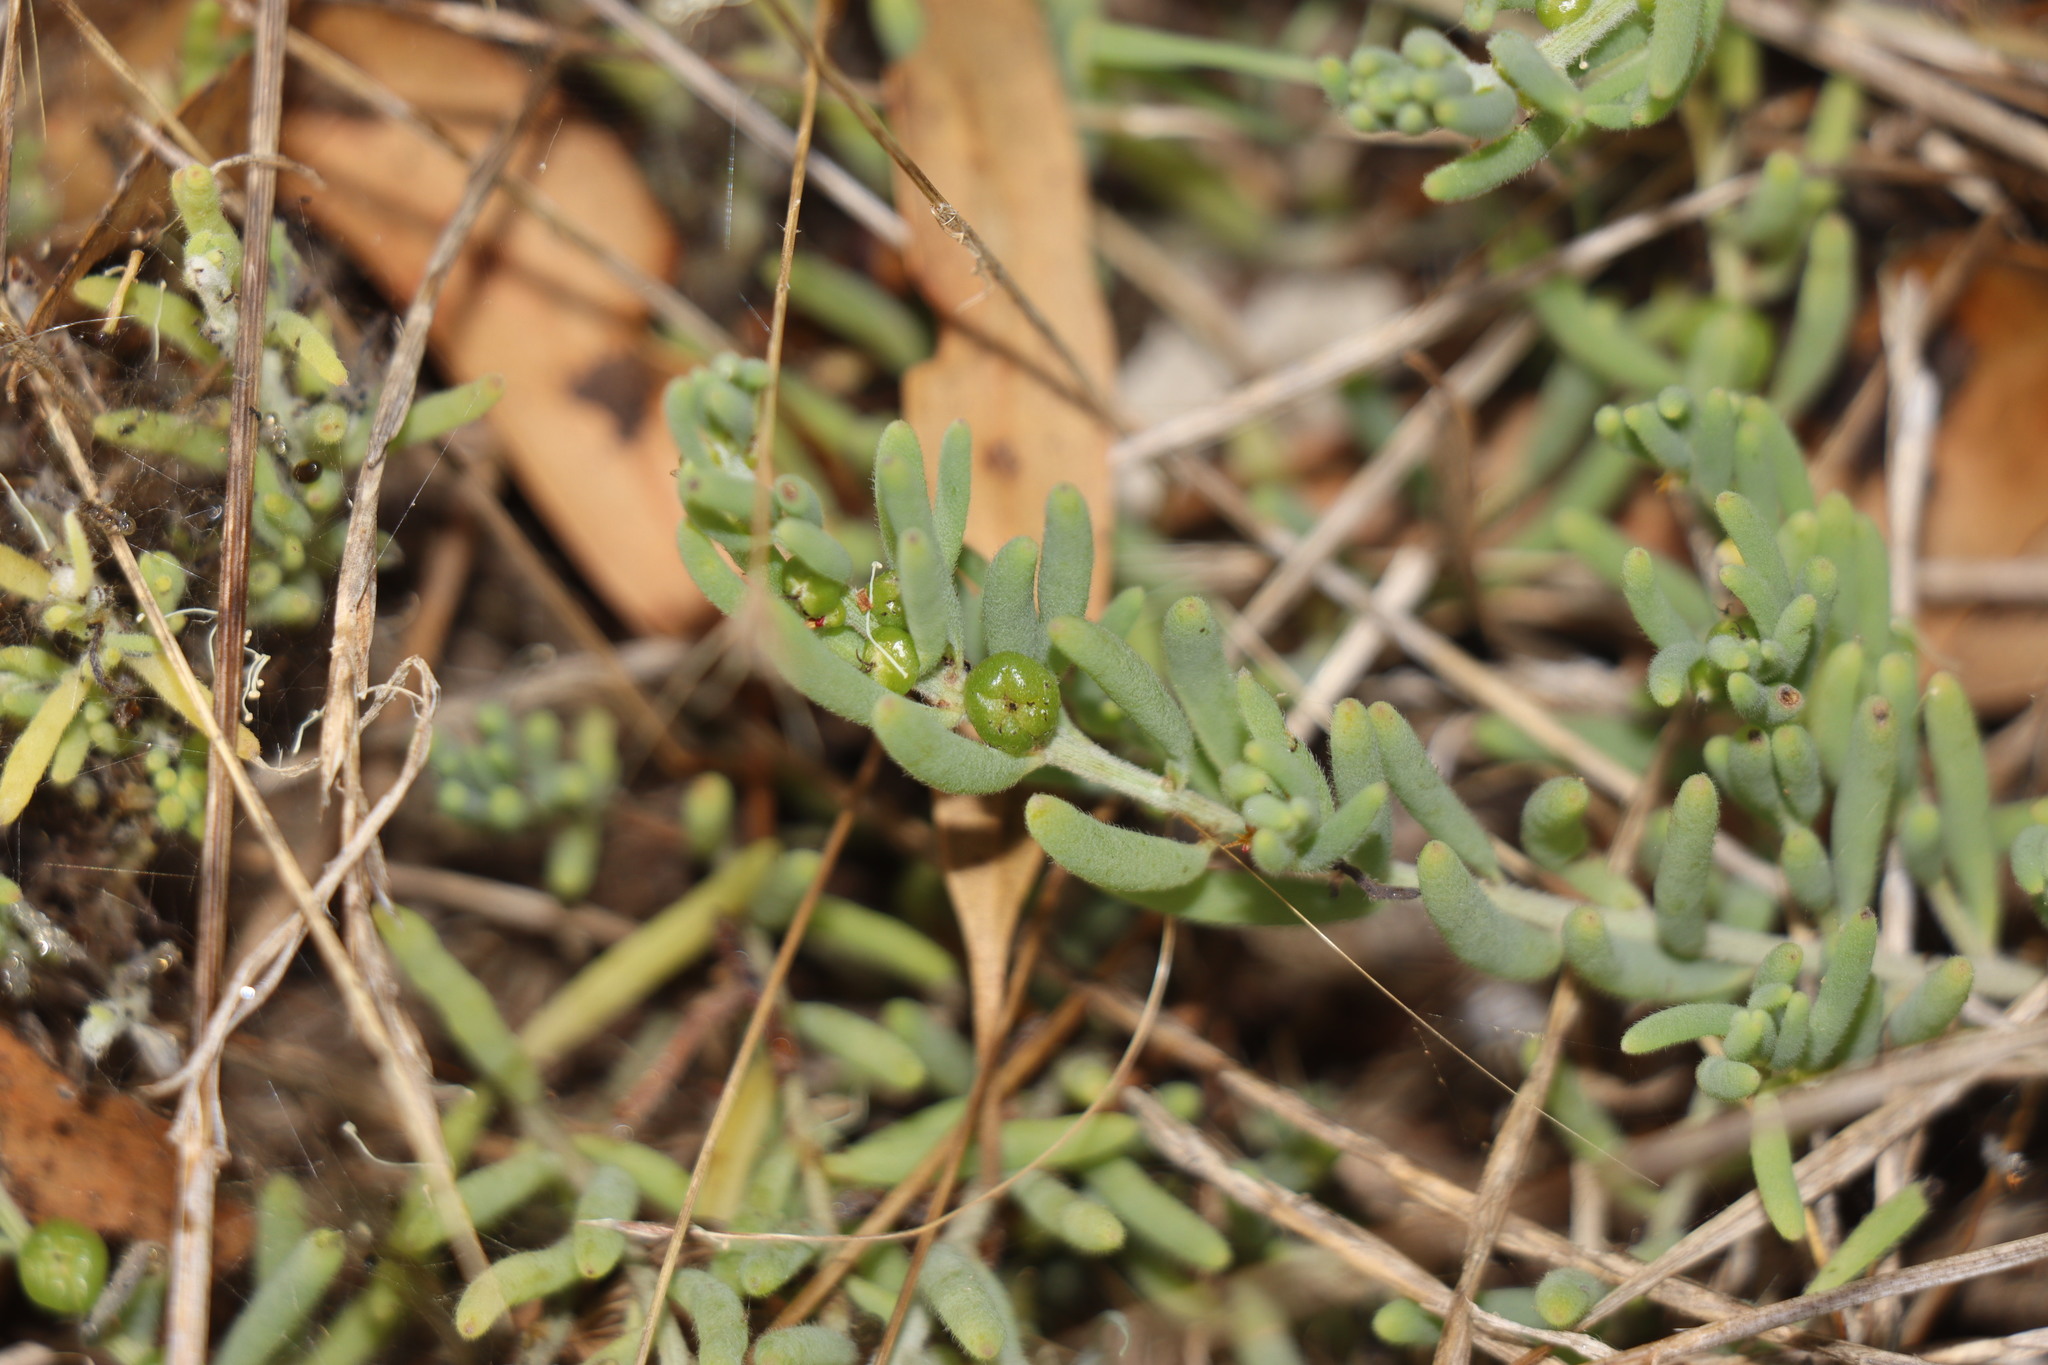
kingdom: Plantae
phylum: Tracheophyta
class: Magnoliopsida
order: Caryophyllales
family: Amaranthaceae
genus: Enchylaena
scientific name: Enchylaena tomentosa
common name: Ruby saltbush
